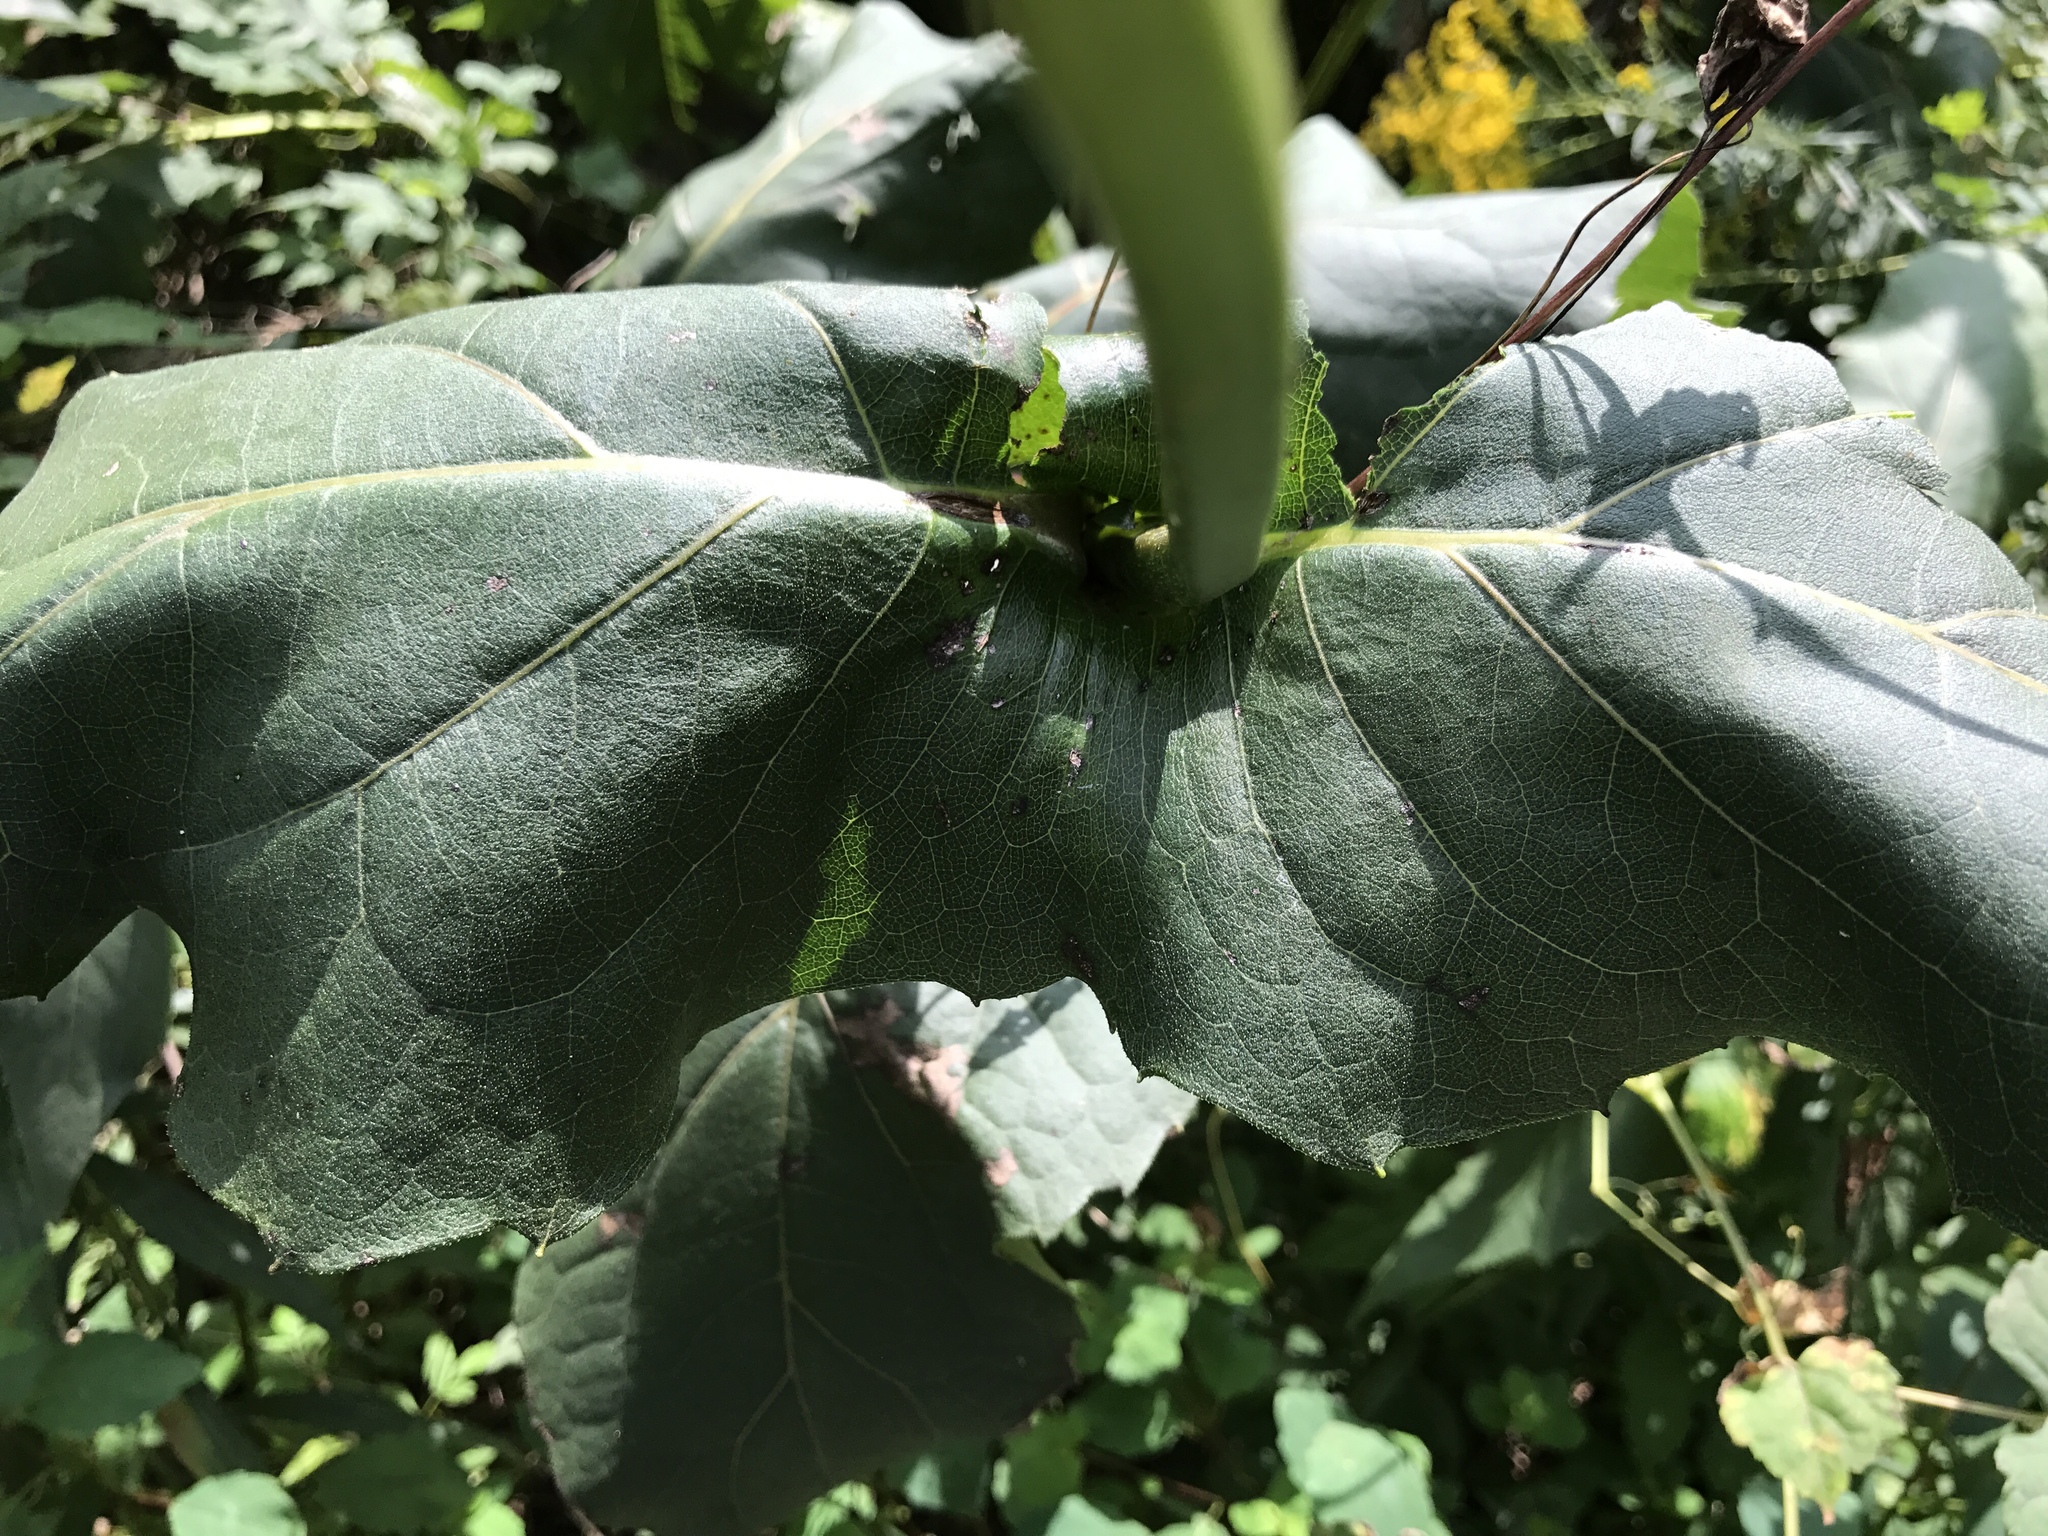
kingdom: Plantae
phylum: Tracheophyta
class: Magnoliopsida
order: Asterales
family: Asteraceae
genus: Silphium
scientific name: Silphium perfoliatum
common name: Cup-plant
